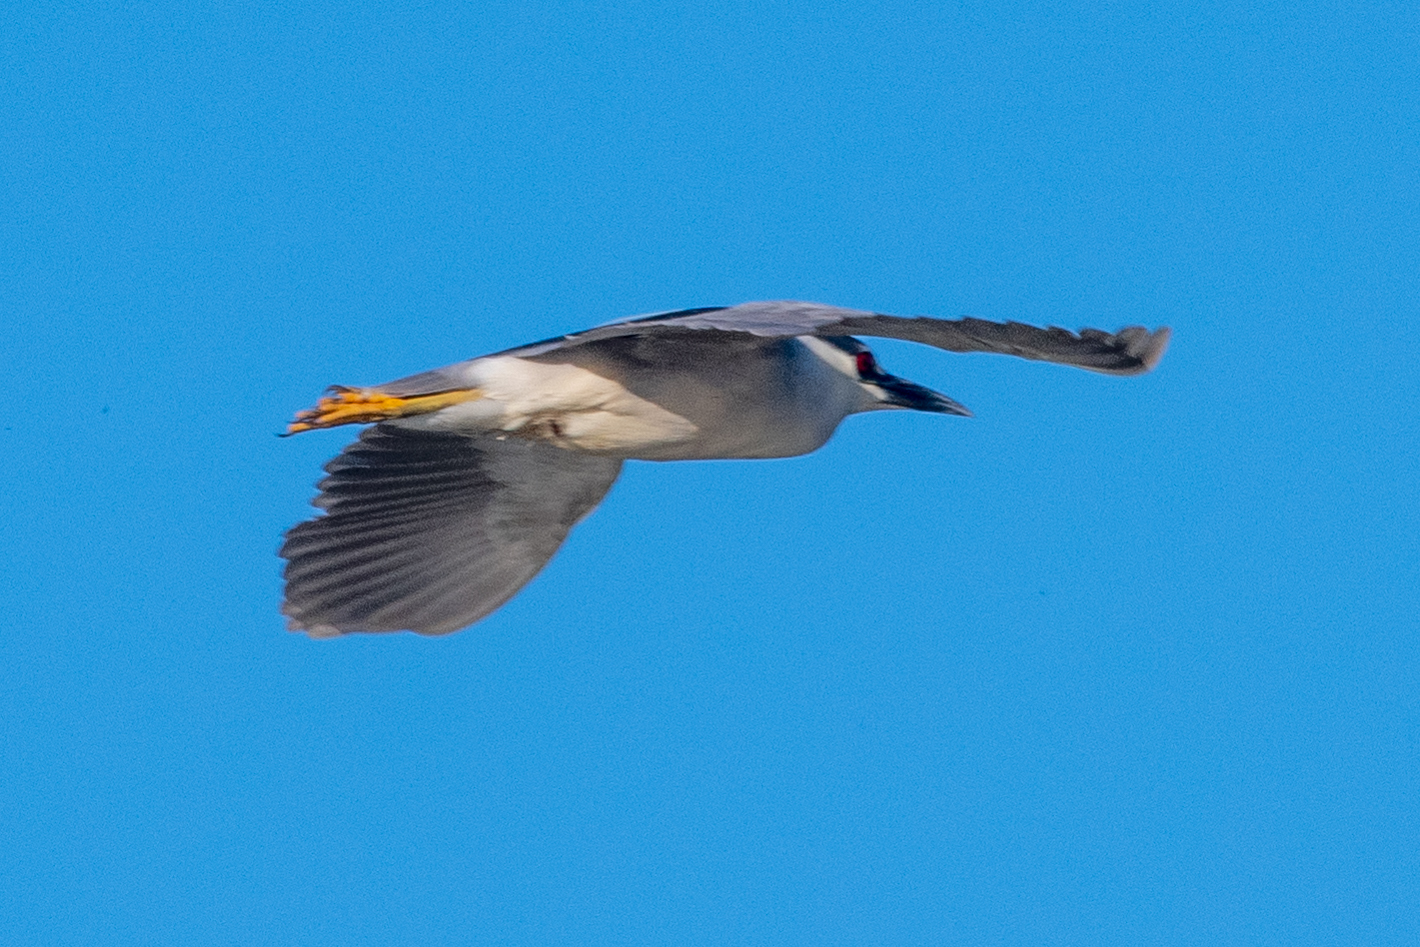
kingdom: Animalia
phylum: Chordata
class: Aves
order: Pelecaniformes
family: Ardeidae
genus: Nycticorax
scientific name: Nycticorax nycticorax
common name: Black-crowned night heron
